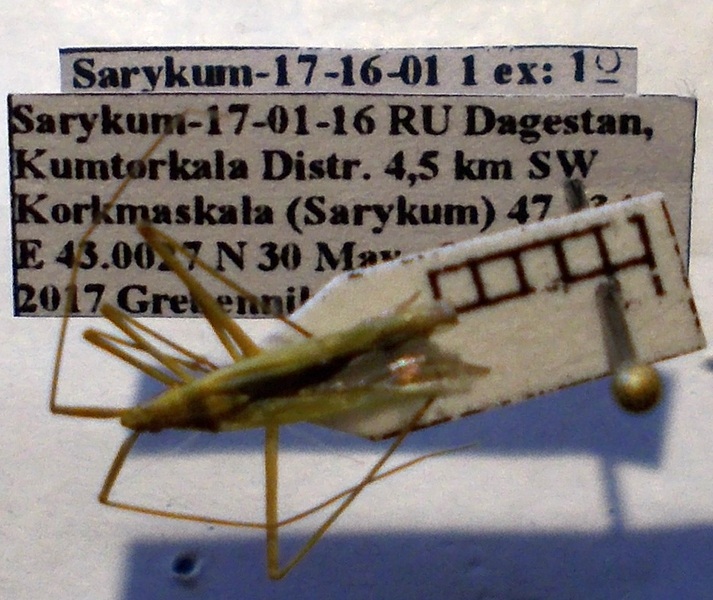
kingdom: Animalia
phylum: Arthropoda
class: Insecta
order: Hemiptera
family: Miridae
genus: Megaloceroea
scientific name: Megaloceroea recticornis
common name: Plant bug
